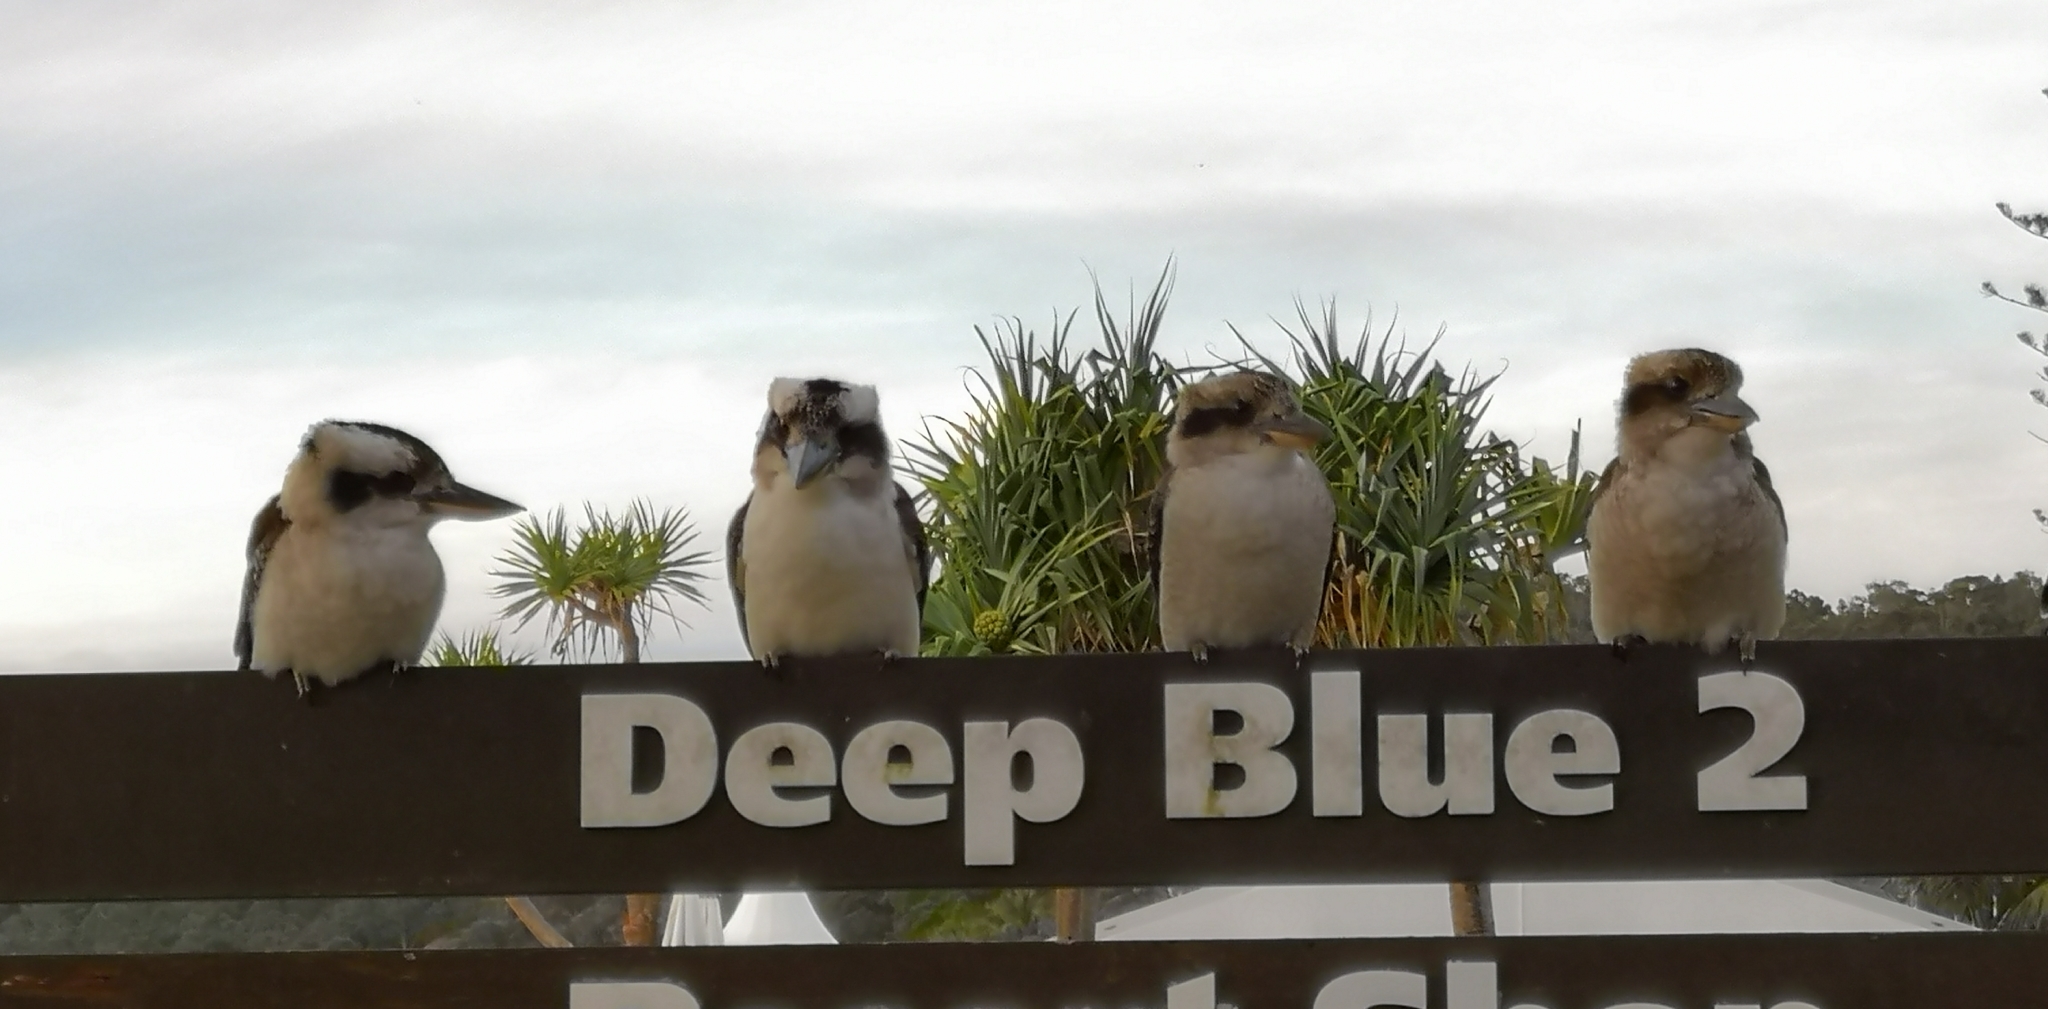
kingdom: Animalia
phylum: Chordata
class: Aves
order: Coraciiformes
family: Alcedinidae
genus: Dacelo
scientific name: Dacelo novaeguineae
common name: Laughing kookaburra
